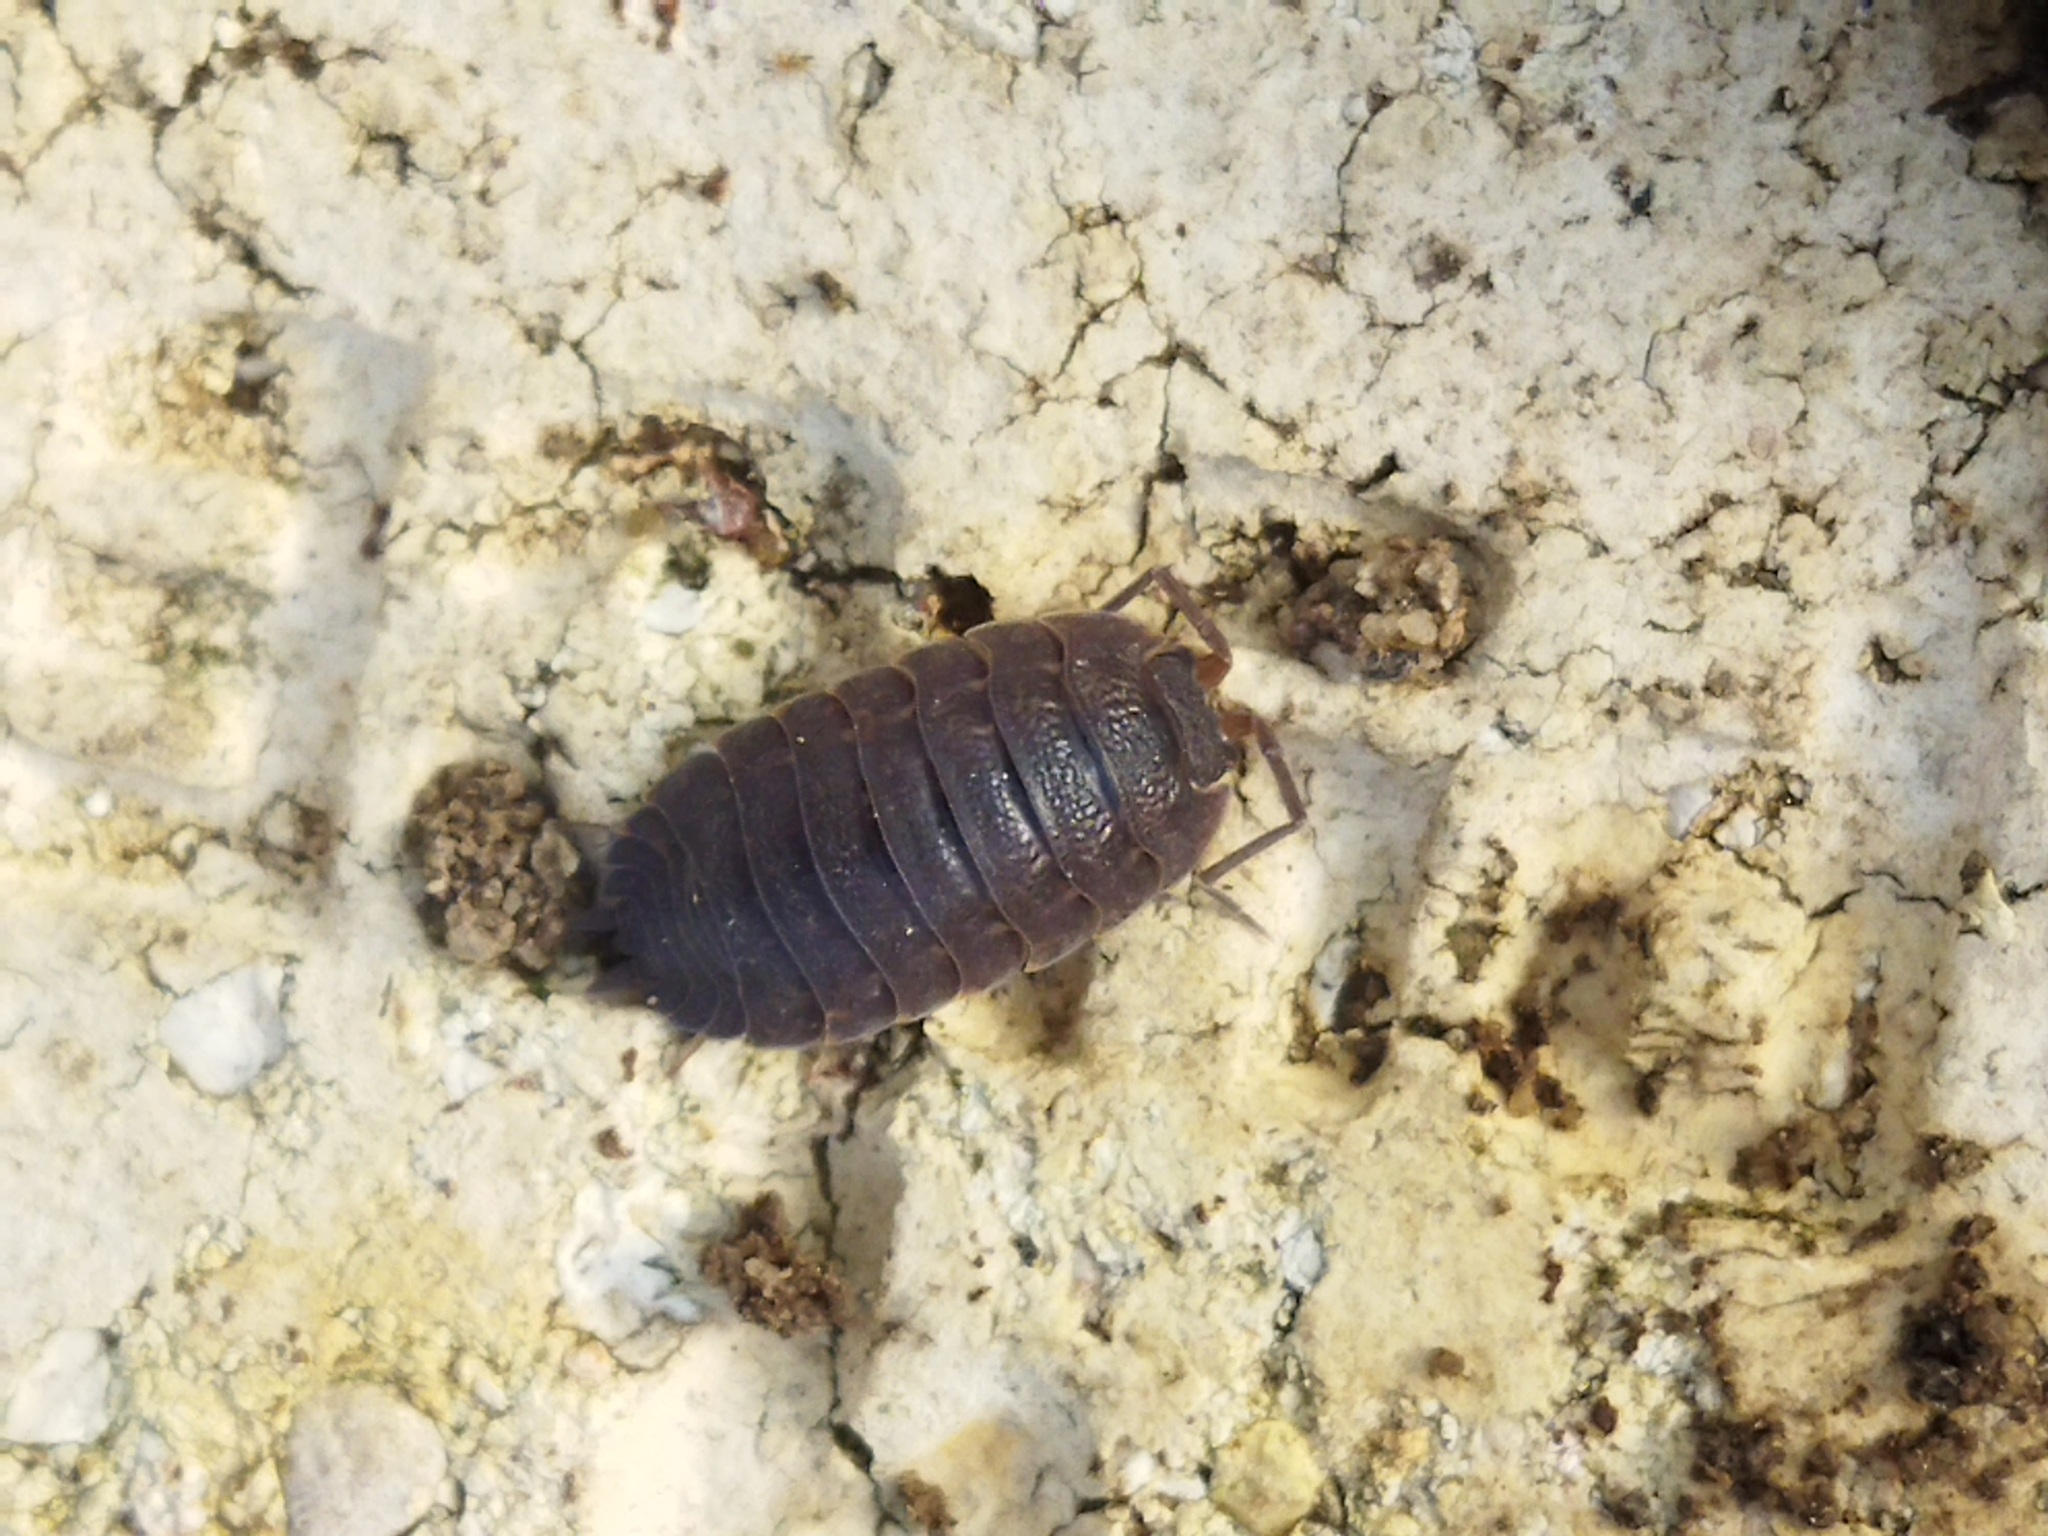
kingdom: Animalia
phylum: Arthropoda
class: Malacostraca
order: Isopoda
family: Porcellionidae
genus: Porcellio
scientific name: Porcellio scaber
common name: Common rough woodlouse
